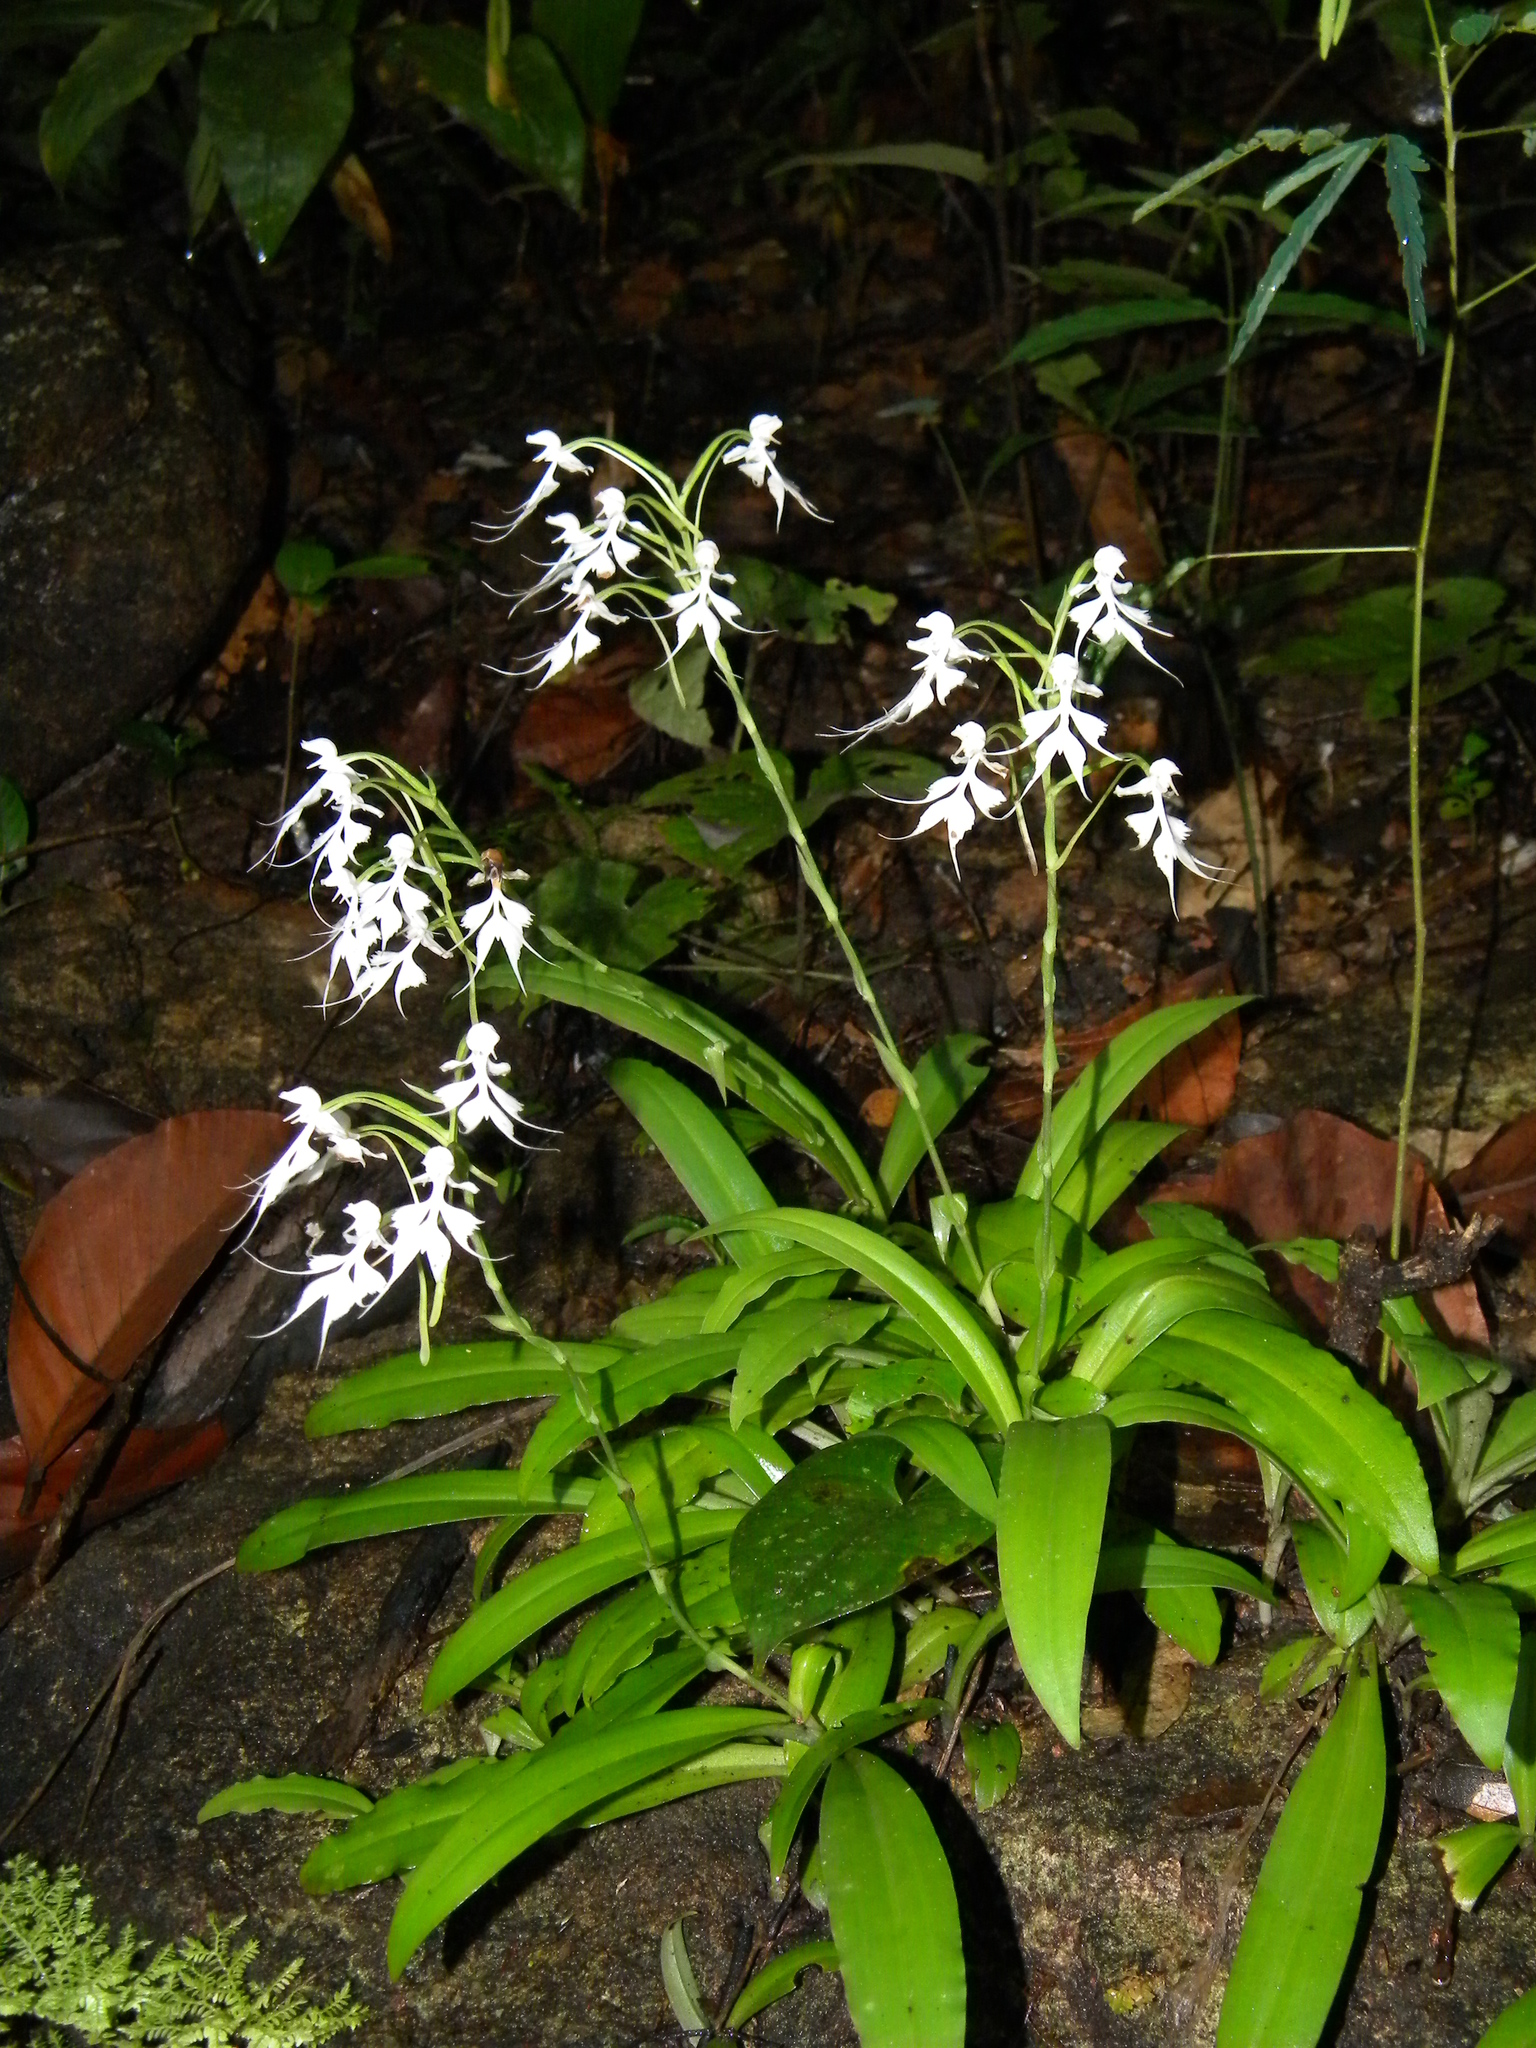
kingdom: Plantae
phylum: Tracheophyta
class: Liliopsida
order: Asparagales
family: Orchidaceae
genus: Habenaria
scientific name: Habenaria crinifera
